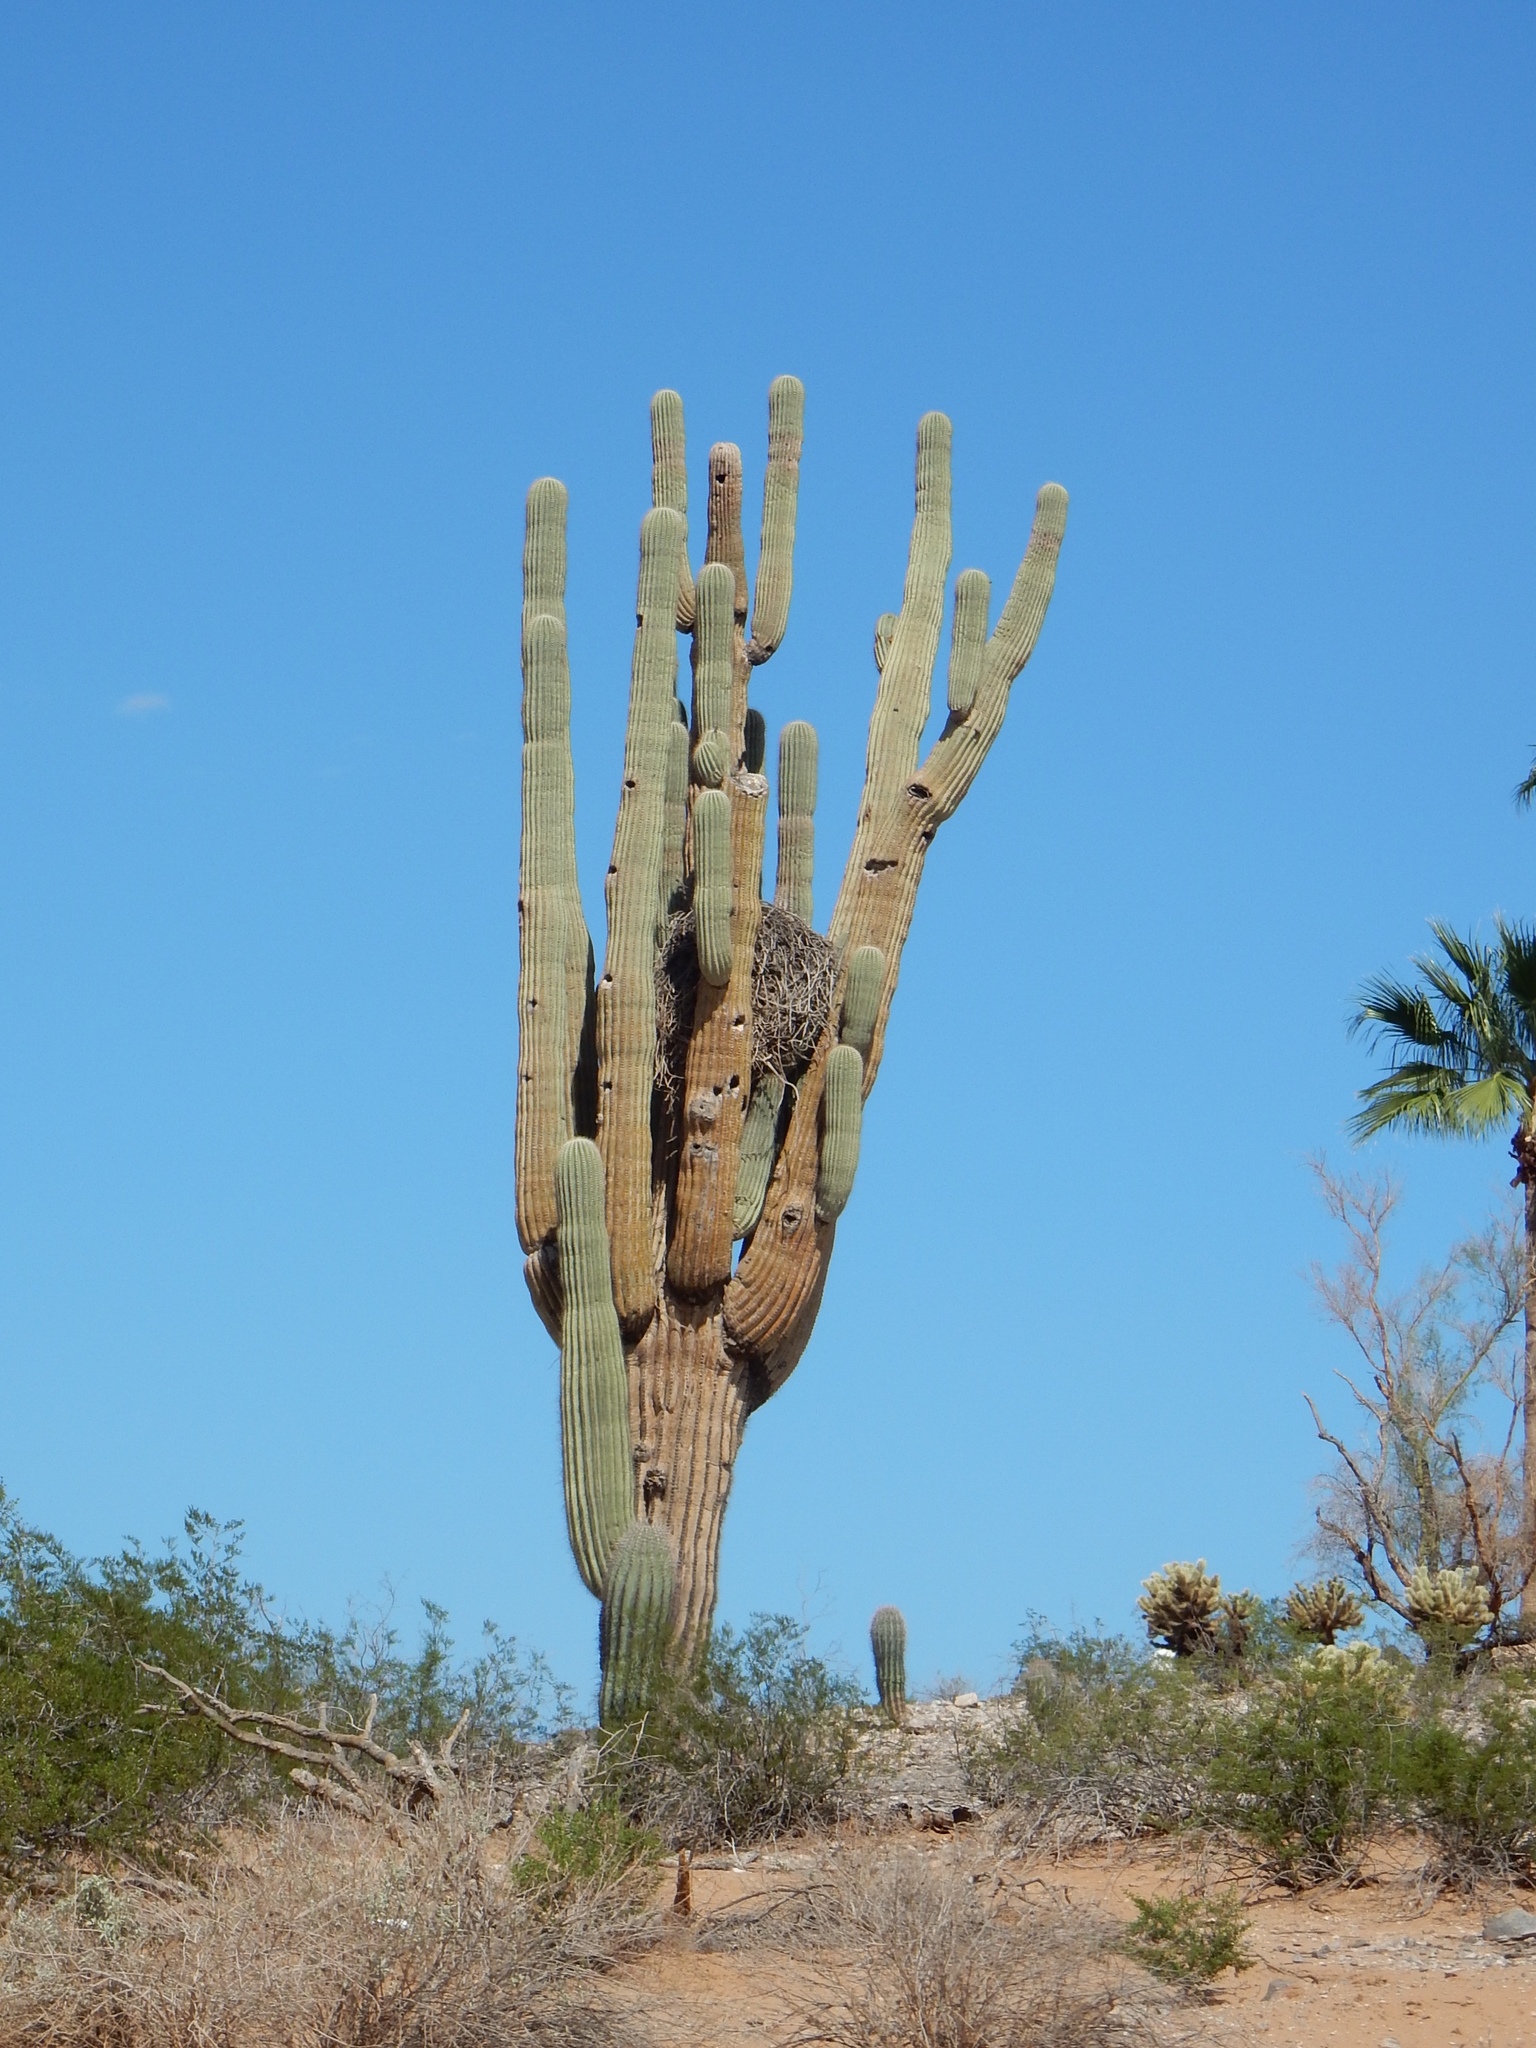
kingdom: Plantae
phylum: Tracheophyta
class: Magnoliopsida
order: Caryophyllales
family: Cactaceae
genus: Carnegiea
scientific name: Carnegiea gigantea
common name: Saguaro
